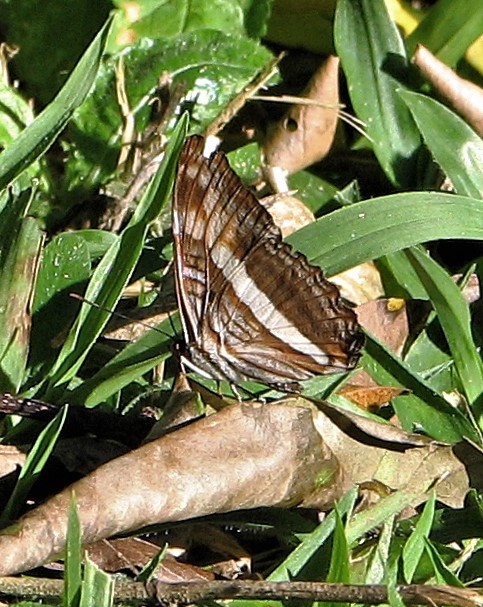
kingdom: Animalia
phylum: Arthropoda
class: Insecta
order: Lepidoptera
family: Nymphalidae
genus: Limenitis
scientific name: Limenitis malea
